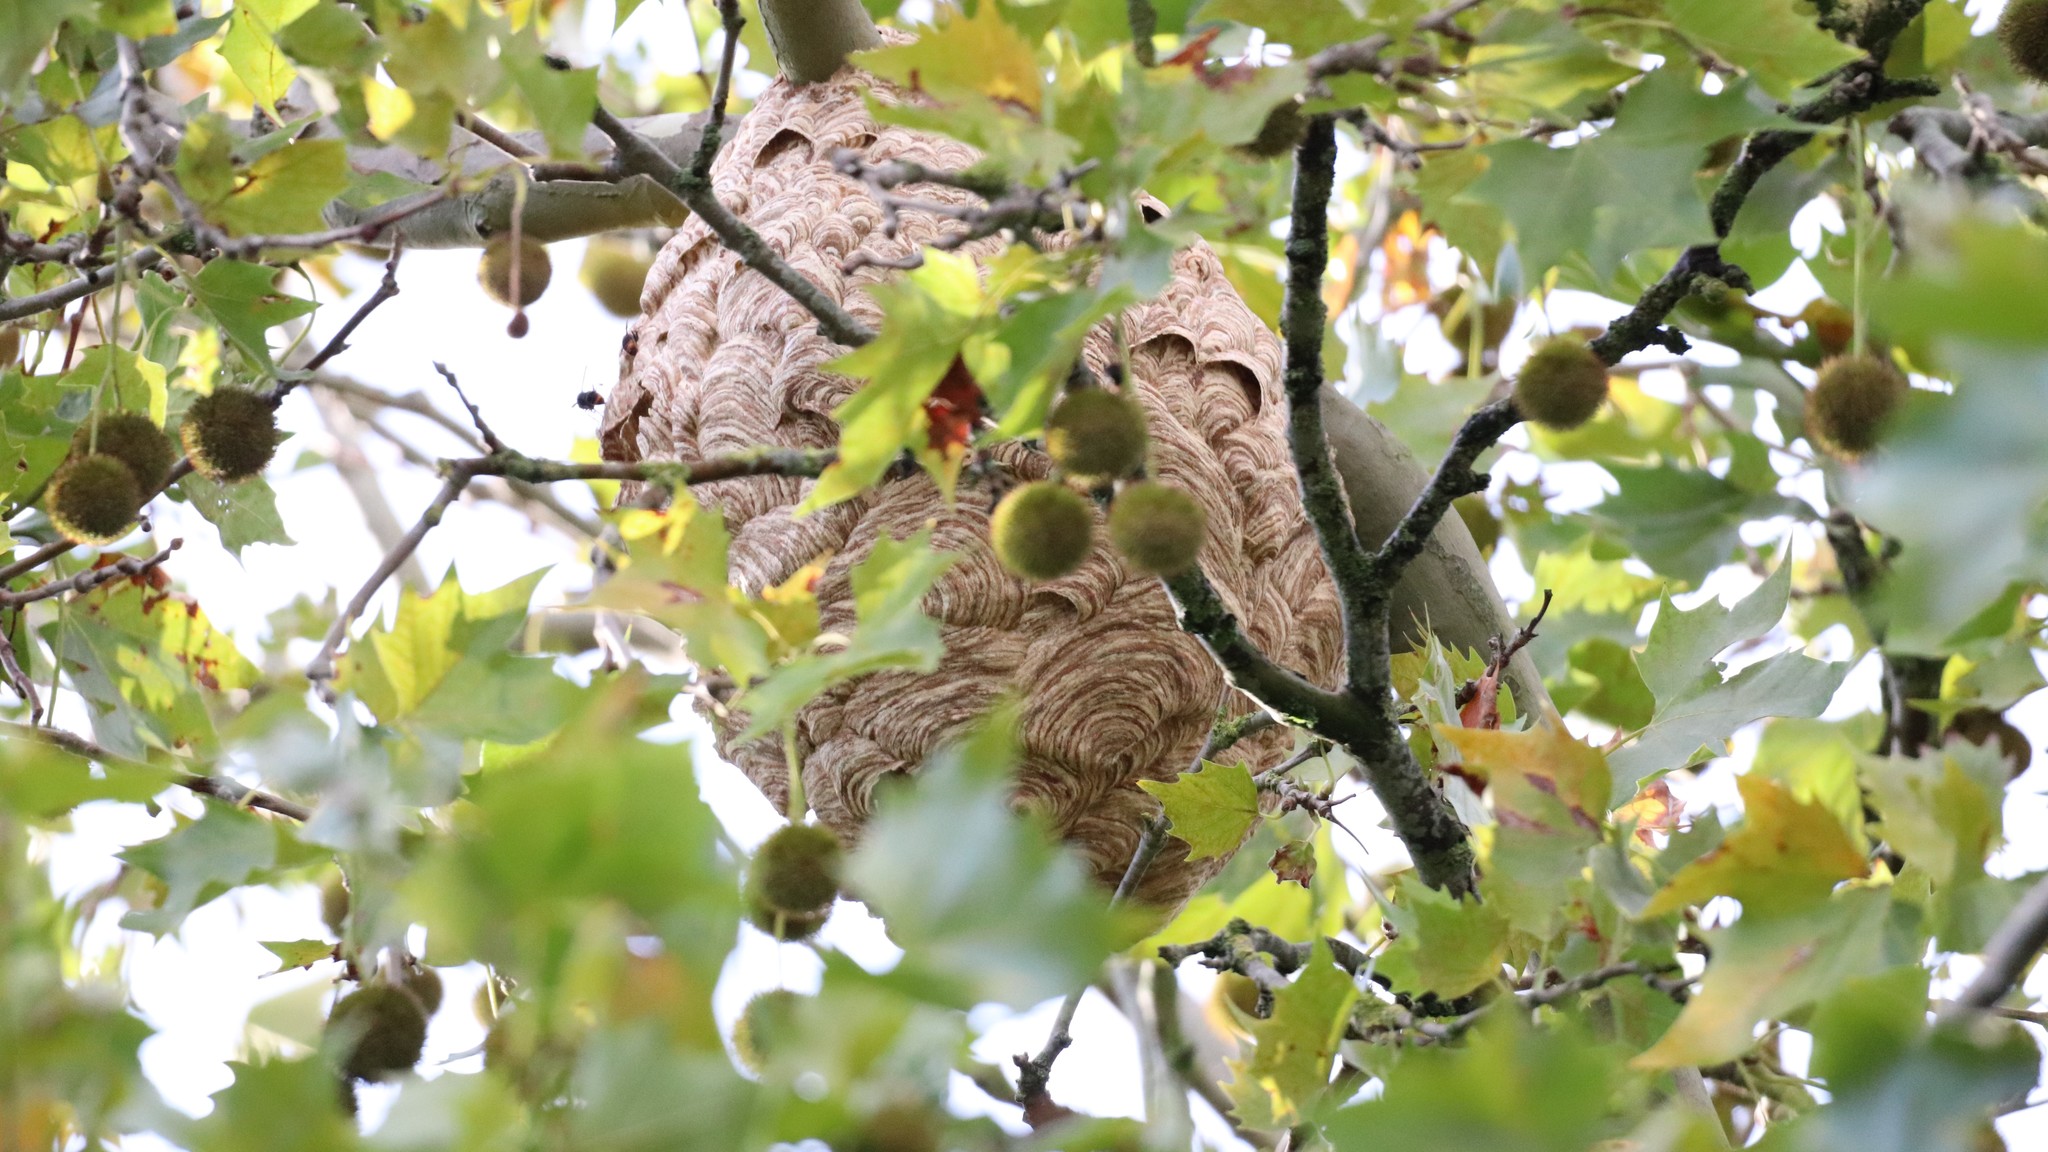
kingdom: Animalia
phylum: Arthropoda
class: Insecta
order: Hymenoptera
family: Vespidae
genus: Vespa
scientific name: Vespa velutina
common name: Asian hornet
